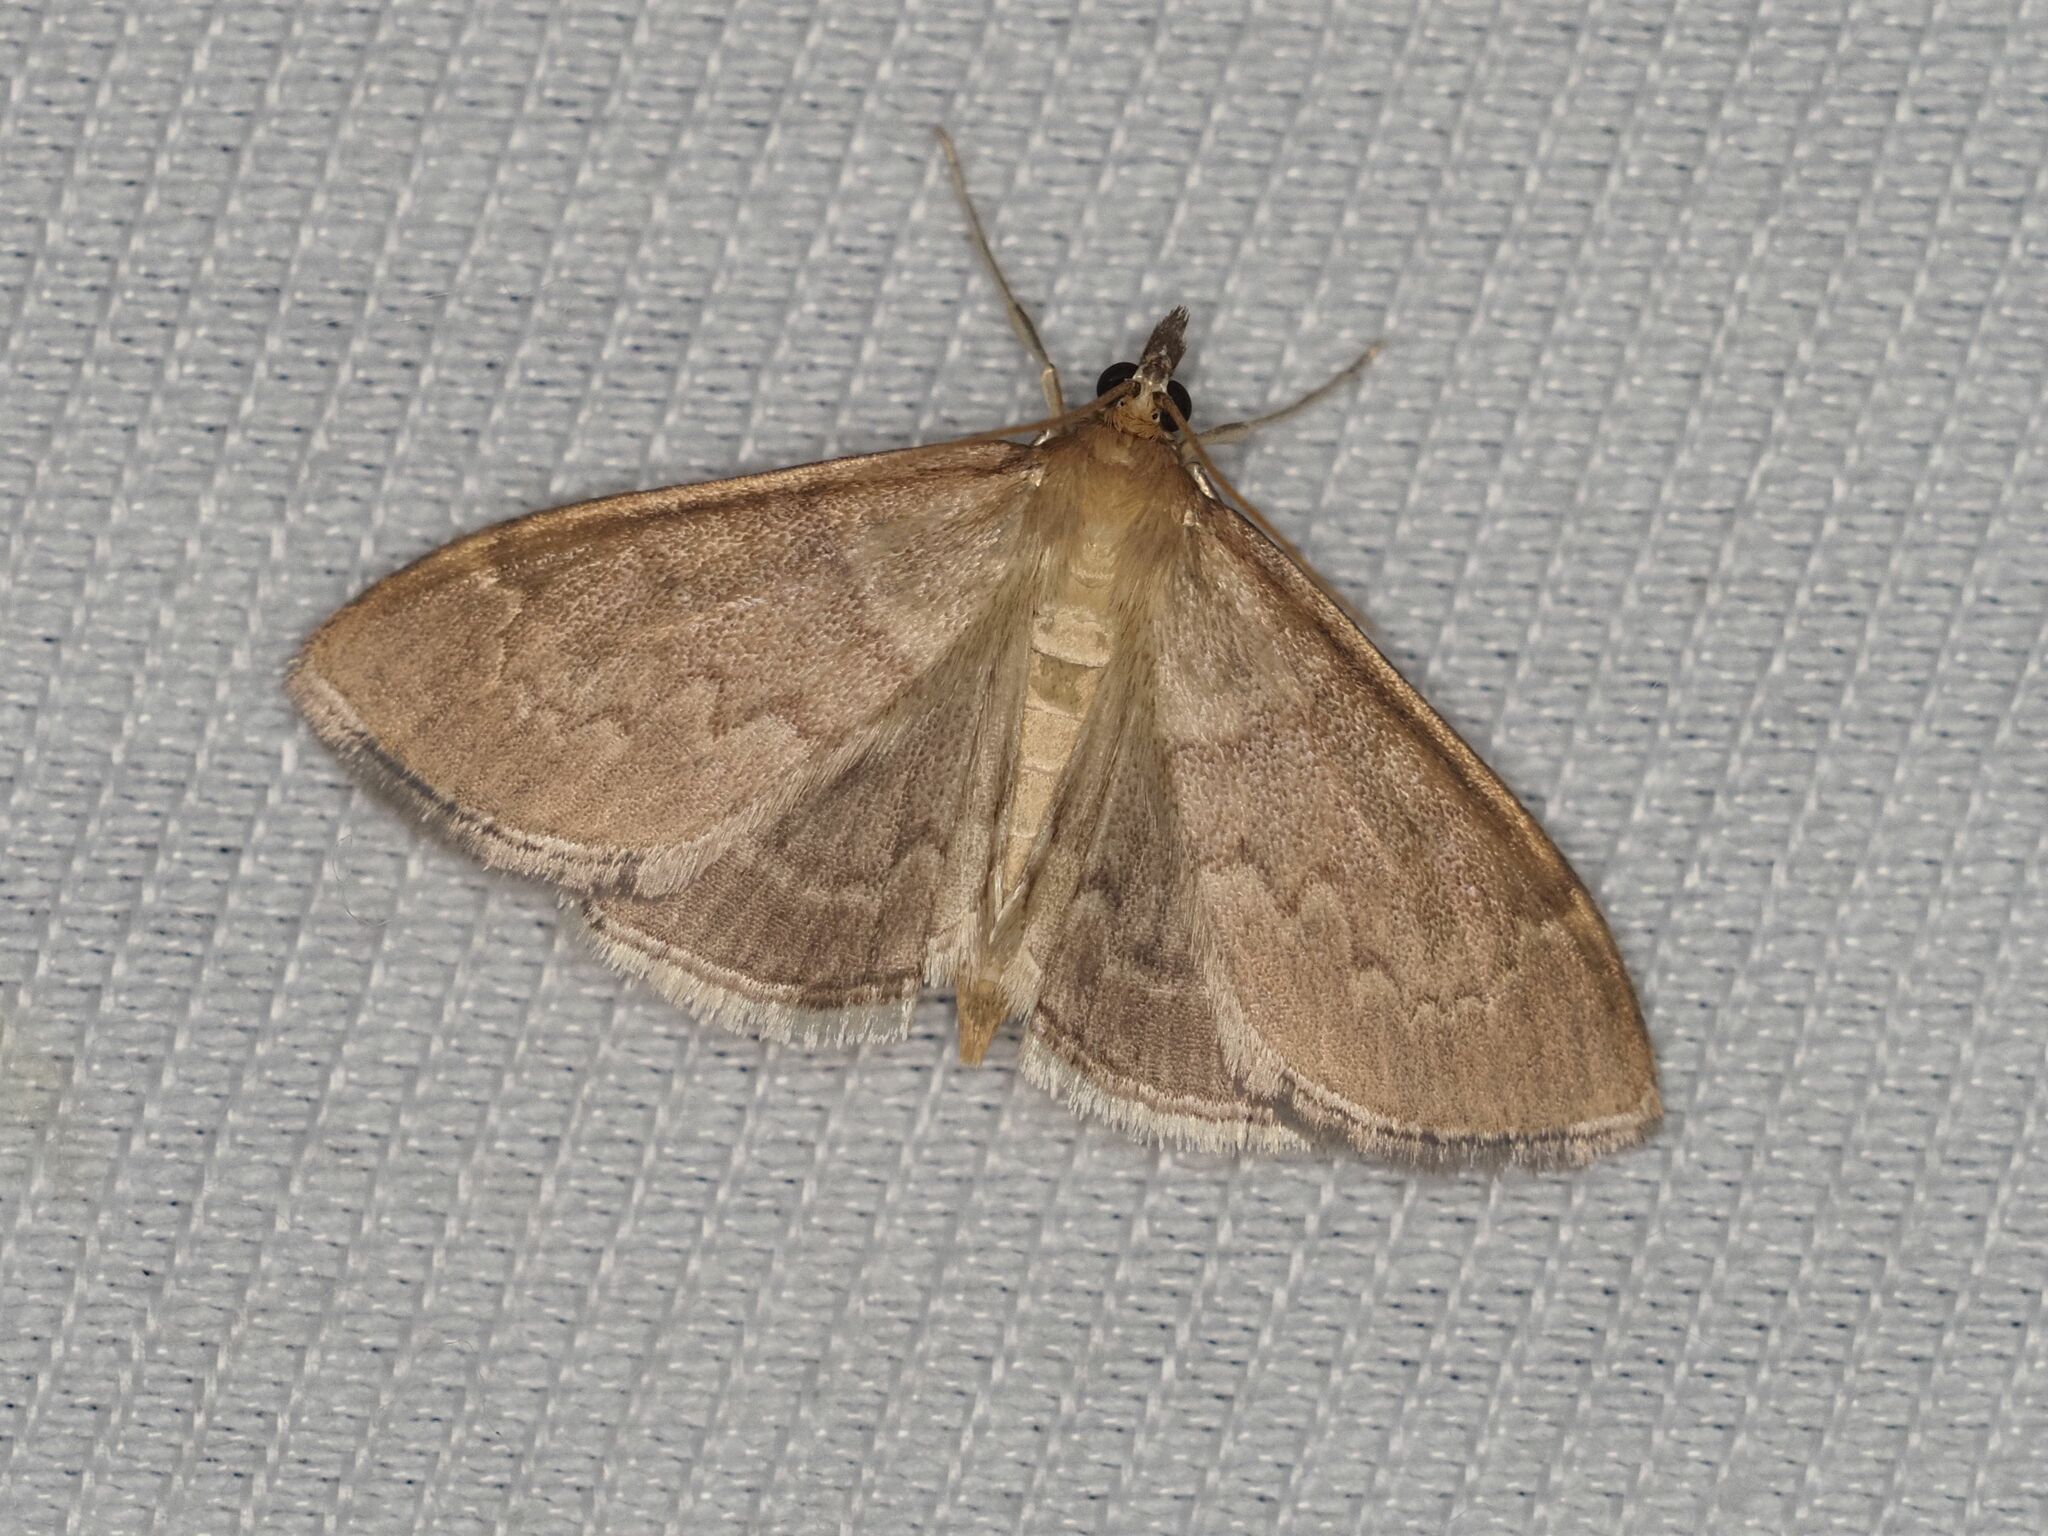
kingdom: Animalia
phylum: Arthropoda
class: Insecta
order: Lepidoptera
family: Crambidae
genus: Anania
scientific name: Anania fuscalis
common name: Cinerous pearl
